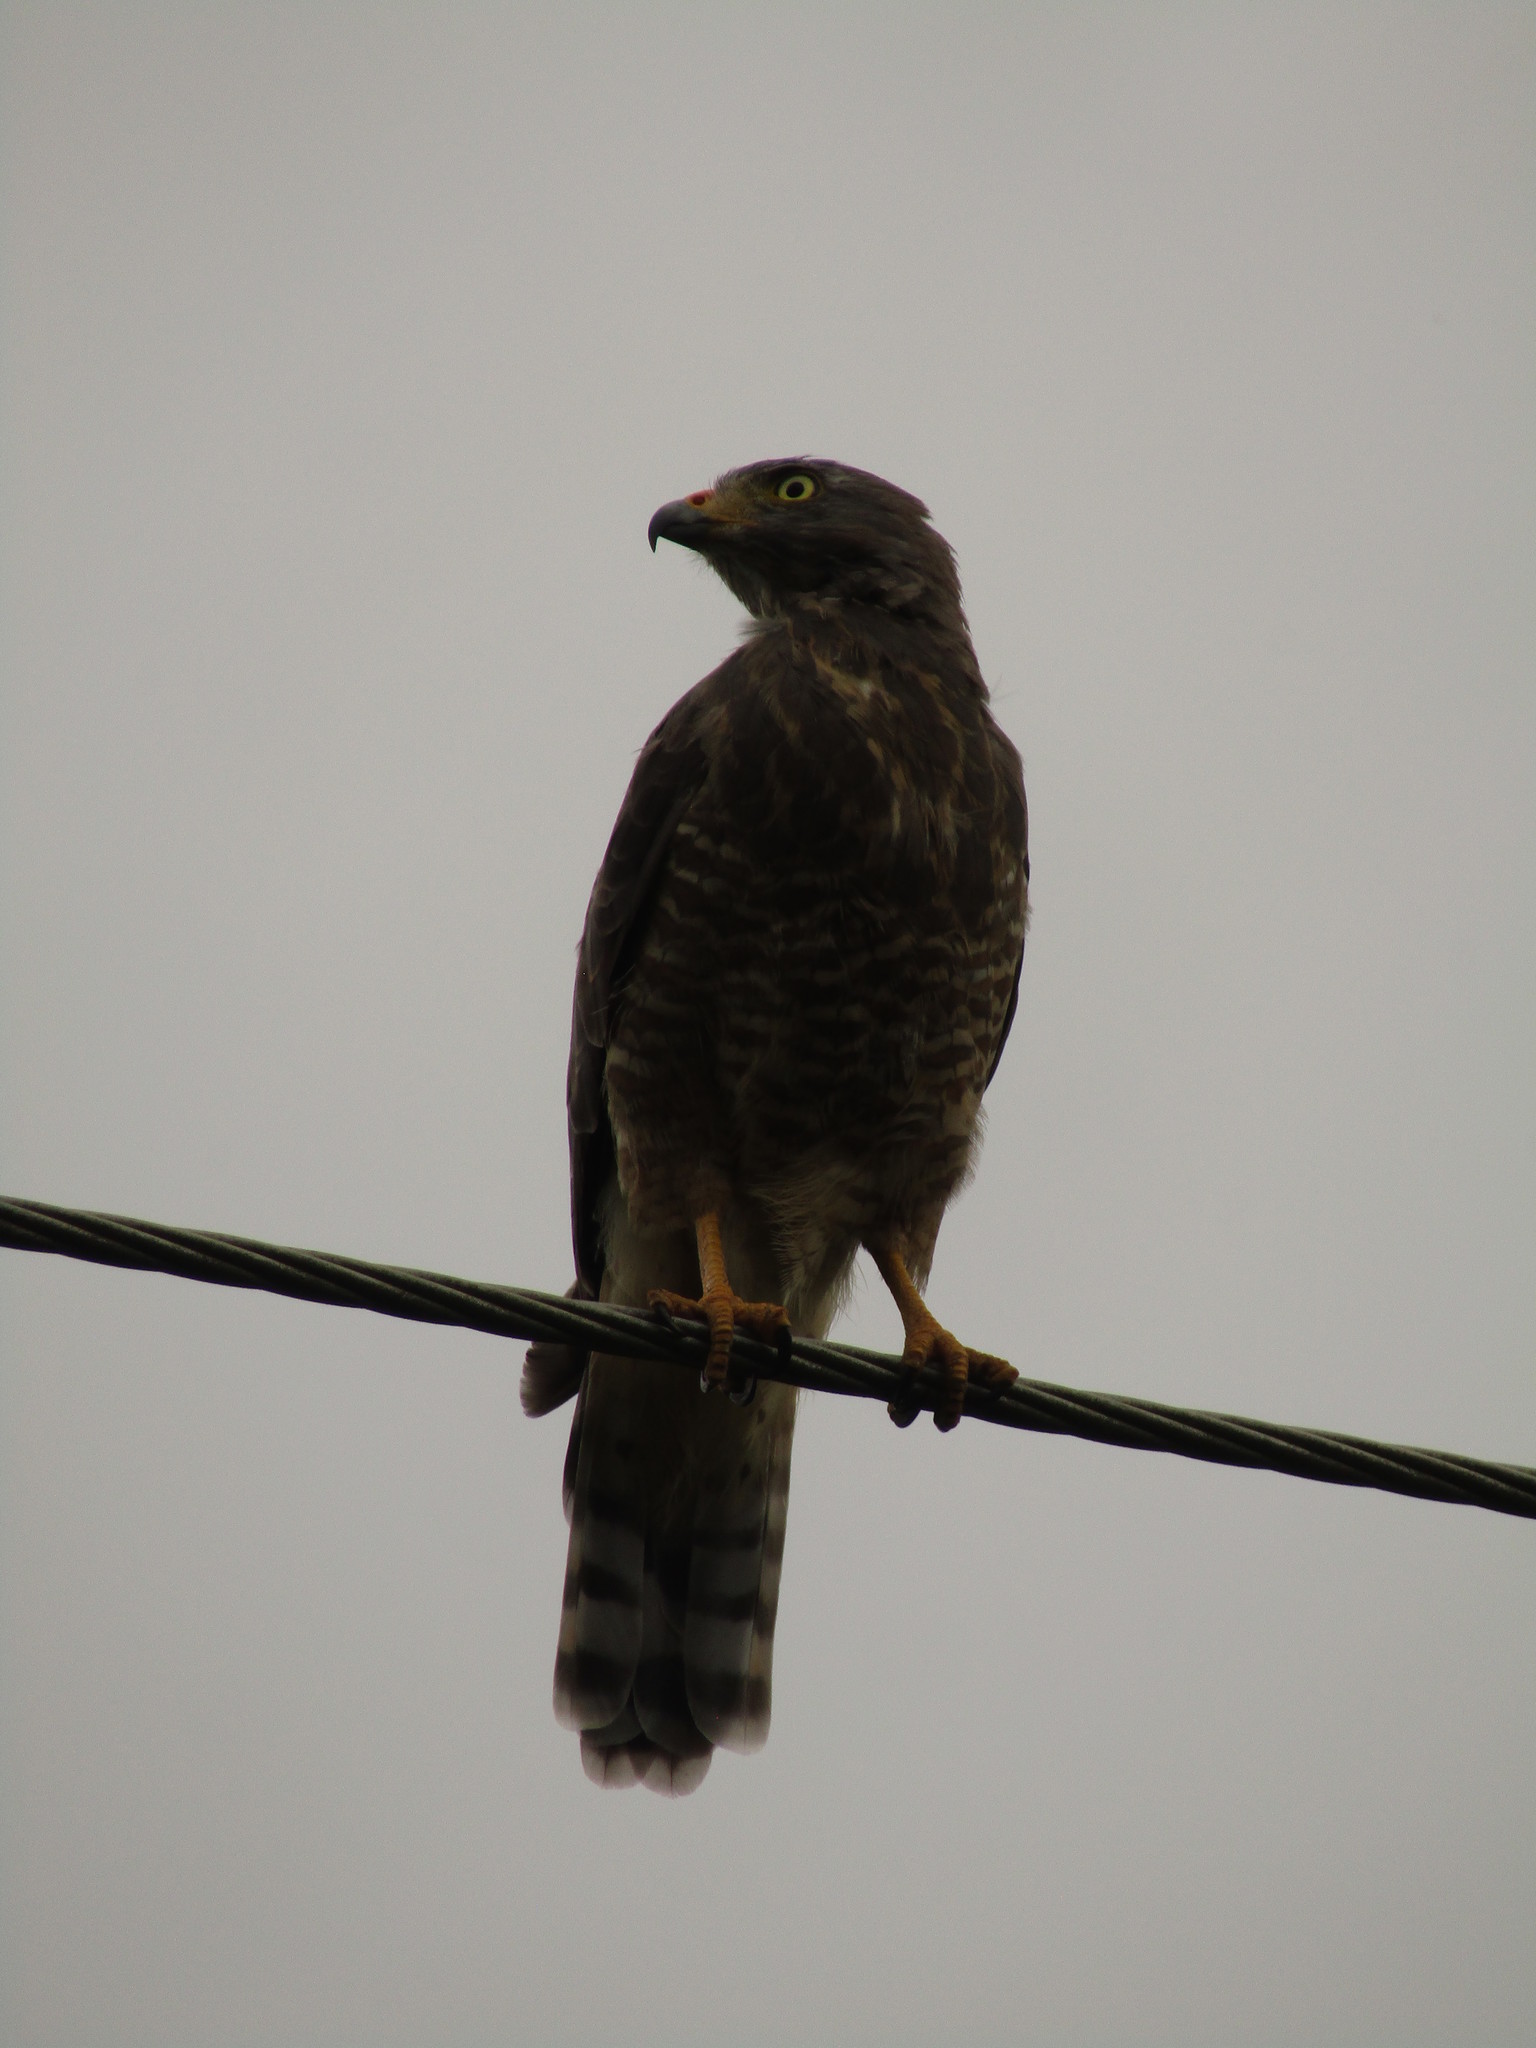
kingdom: Animalia
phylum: Chordata
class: Aves
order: Accipitriformes
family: Accipitridae
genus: Rupornis
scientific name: Rupornis magnirostris
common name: Roadside hawk
